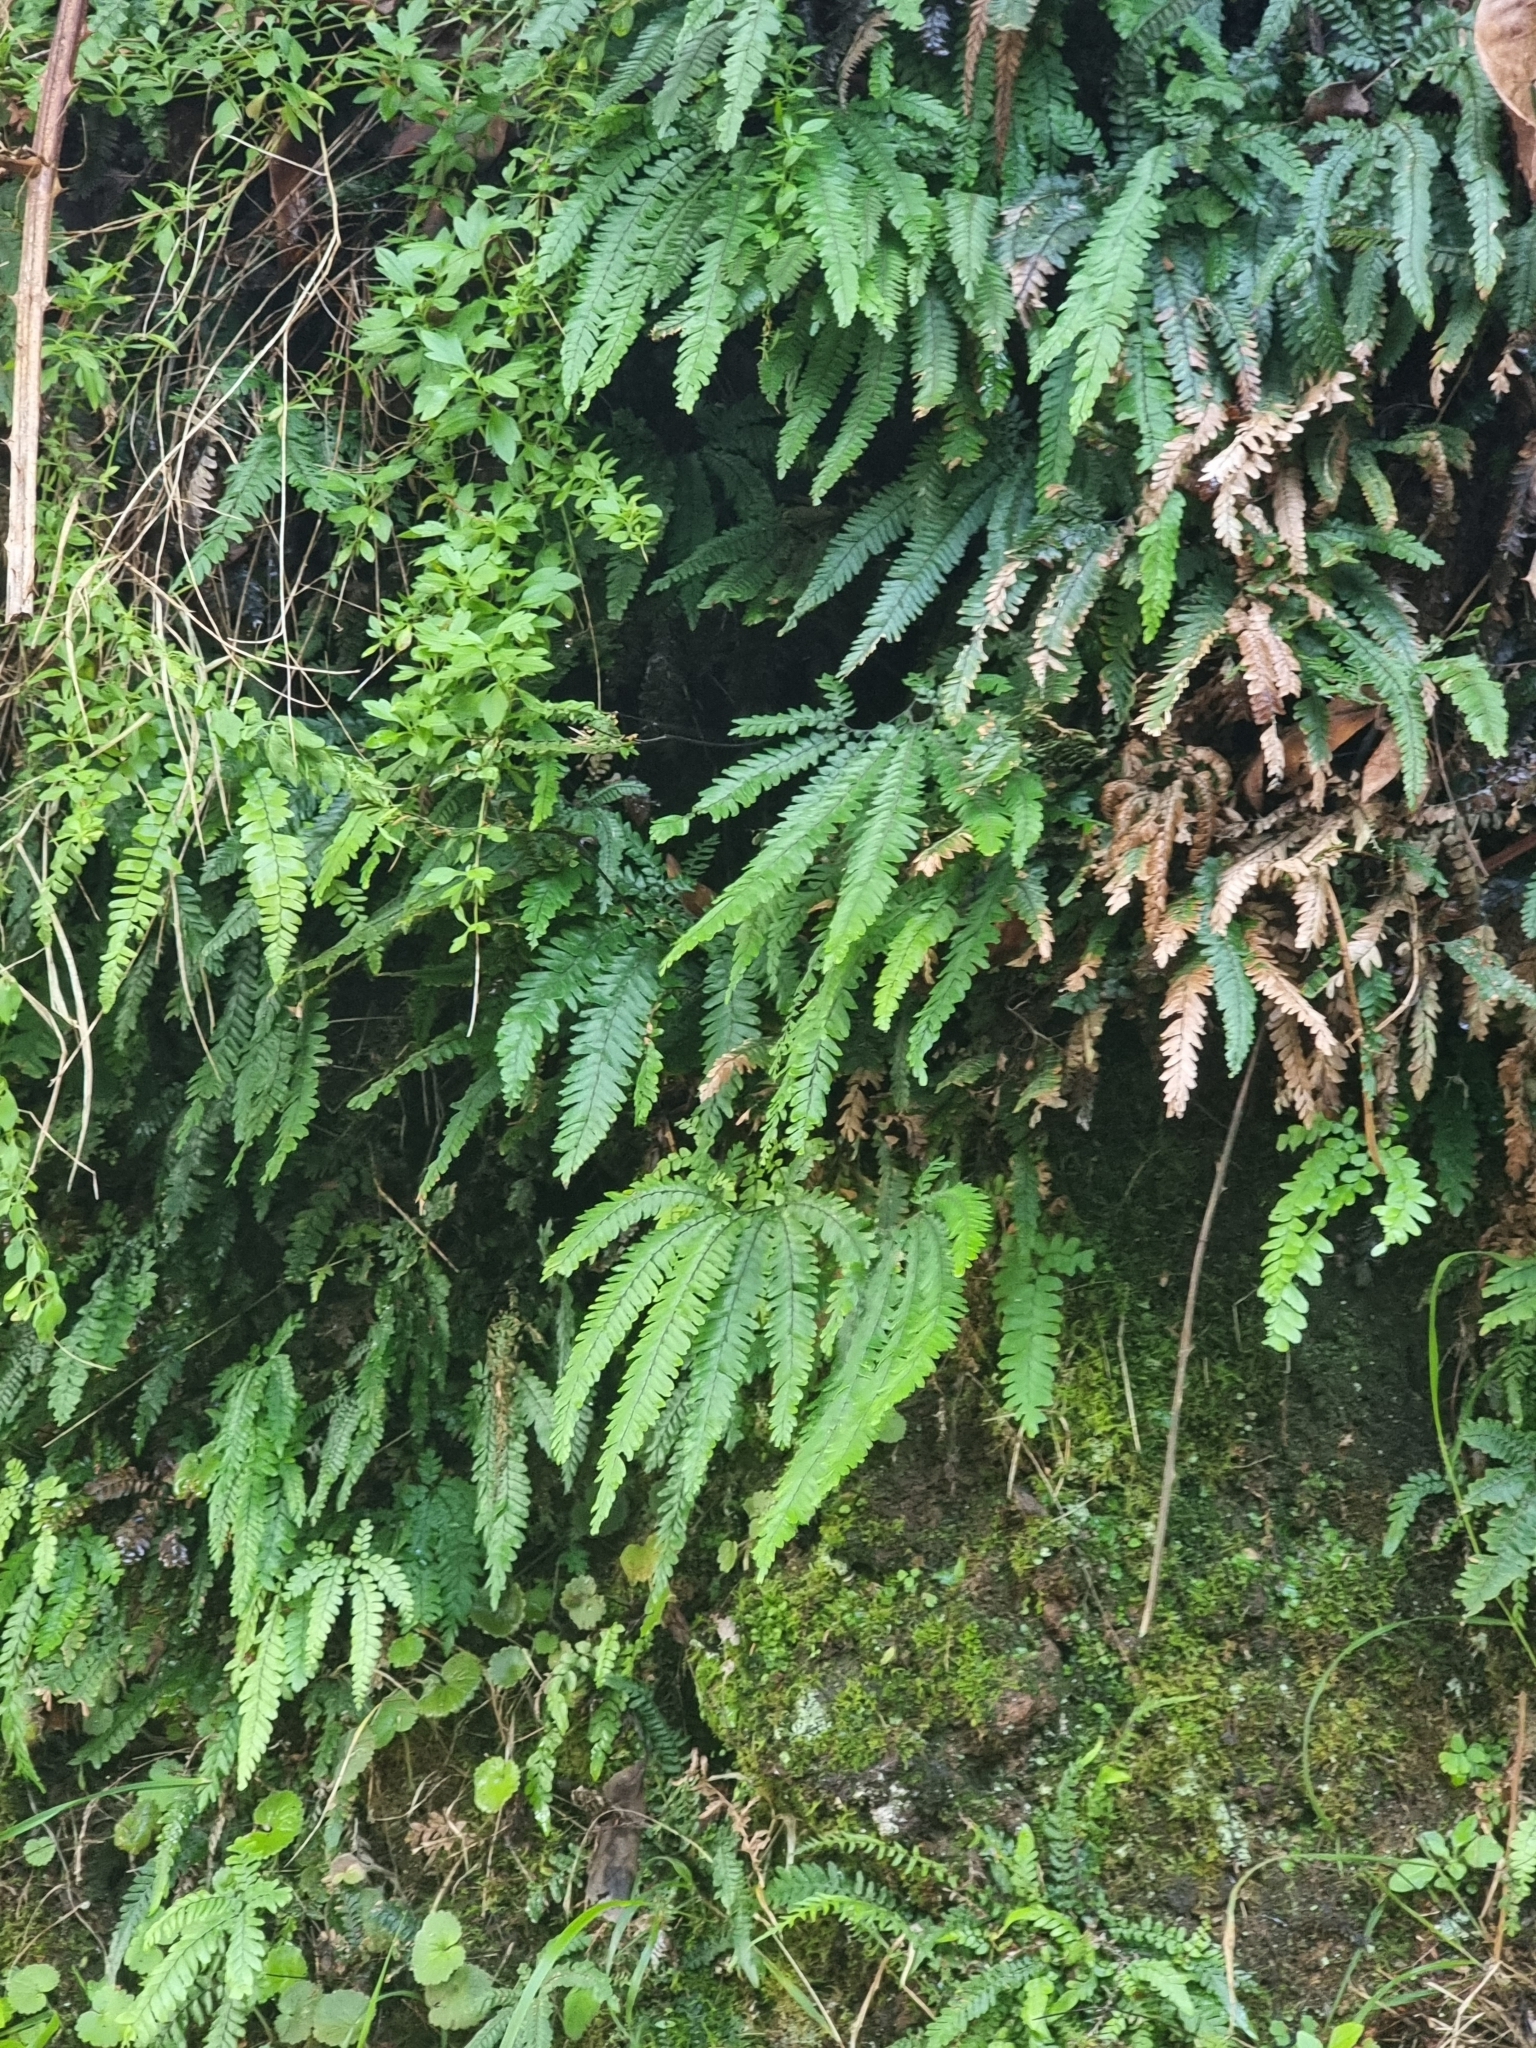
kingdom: Plantae
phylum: Tracheophyta
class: Polypodiopsida
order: Polypodiales
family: Pteridaceae
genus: Adiantum
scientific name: Adiantum hispidulum
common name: Rough maidenhair
